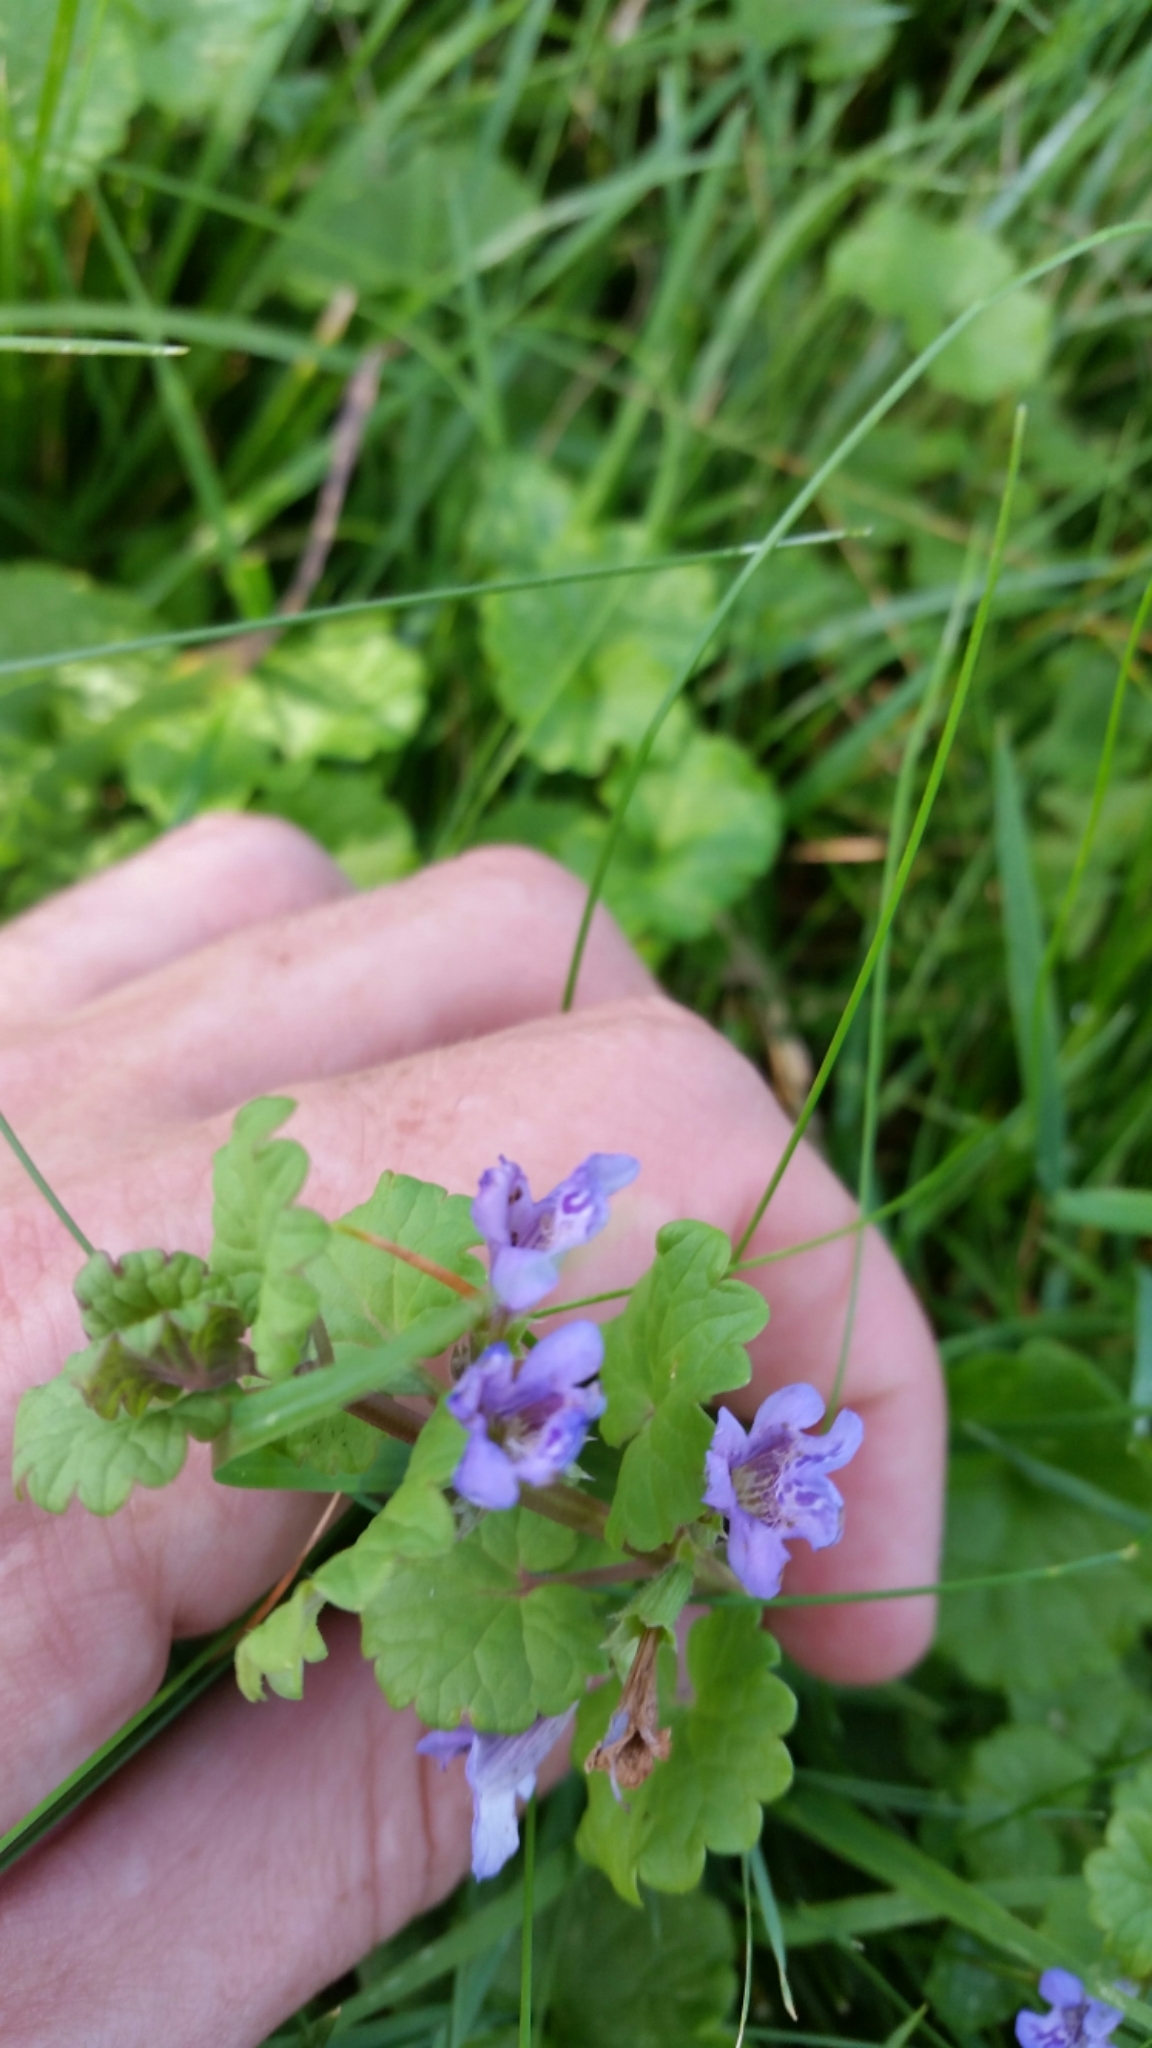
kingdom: Plantae
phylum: Tracheophyta
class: Magnoliopsida
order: Lamiales
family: Lamiaceae
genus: Glechoma
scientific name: Glechoma hederacea
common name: Ground ivy
